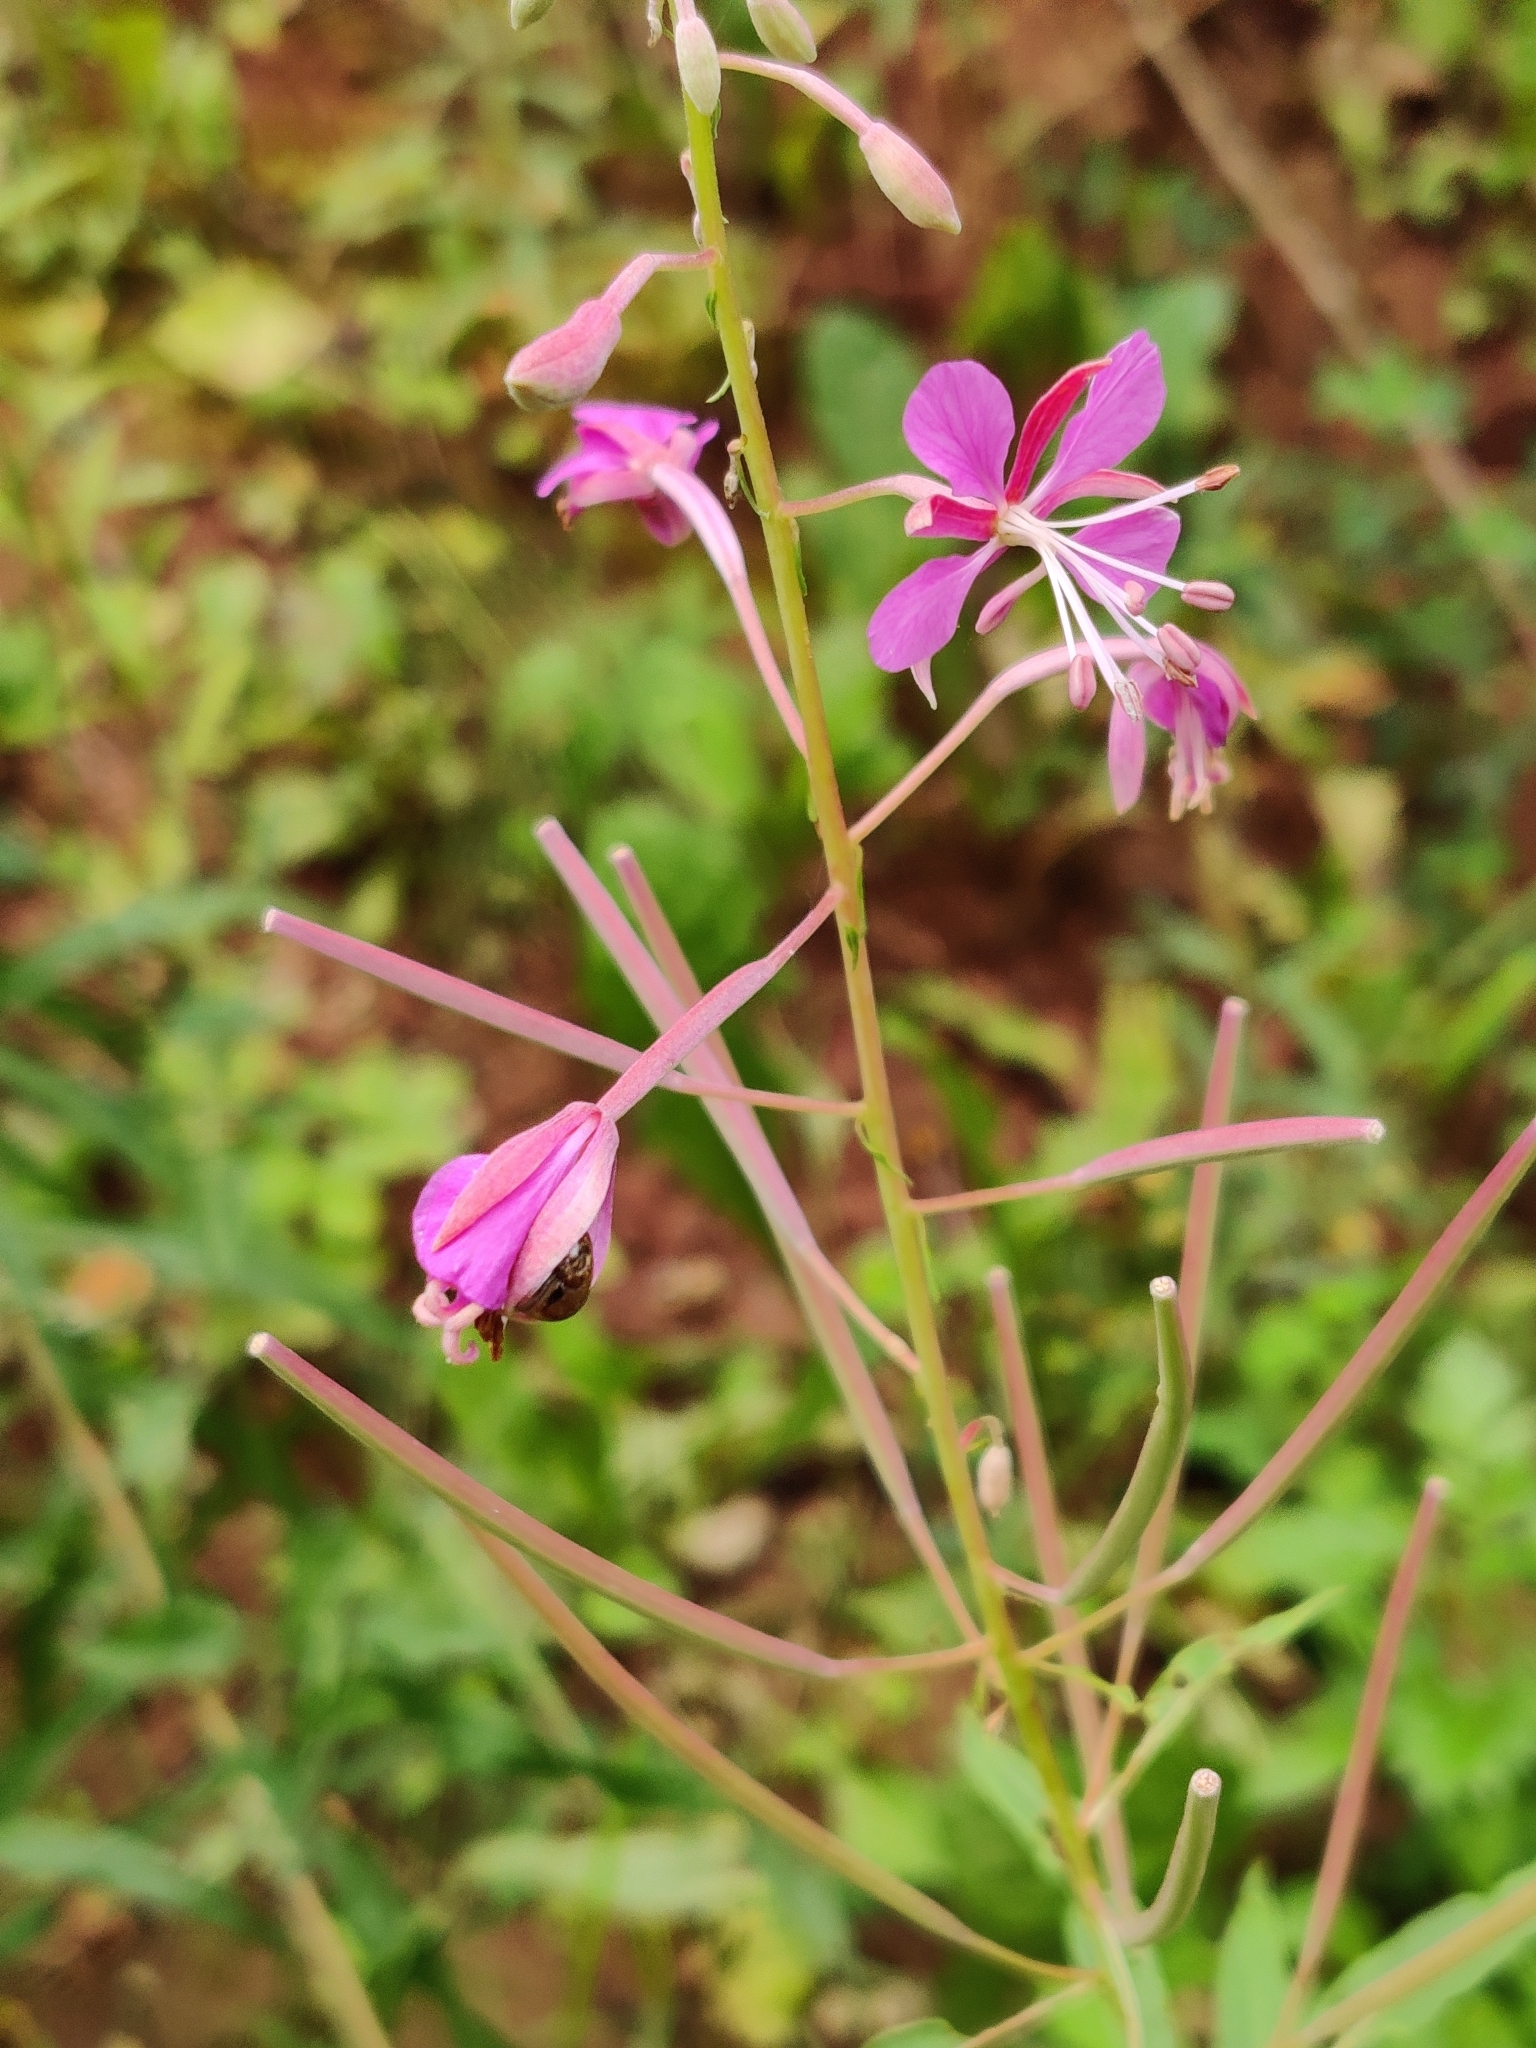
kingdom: Plantae
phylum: Tracheophyta
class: Magnoliopsida
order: Myrtales
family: Onagraceae
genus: Chamaenerion
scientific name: Chamaenerion angustifolium
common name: Fireweed
